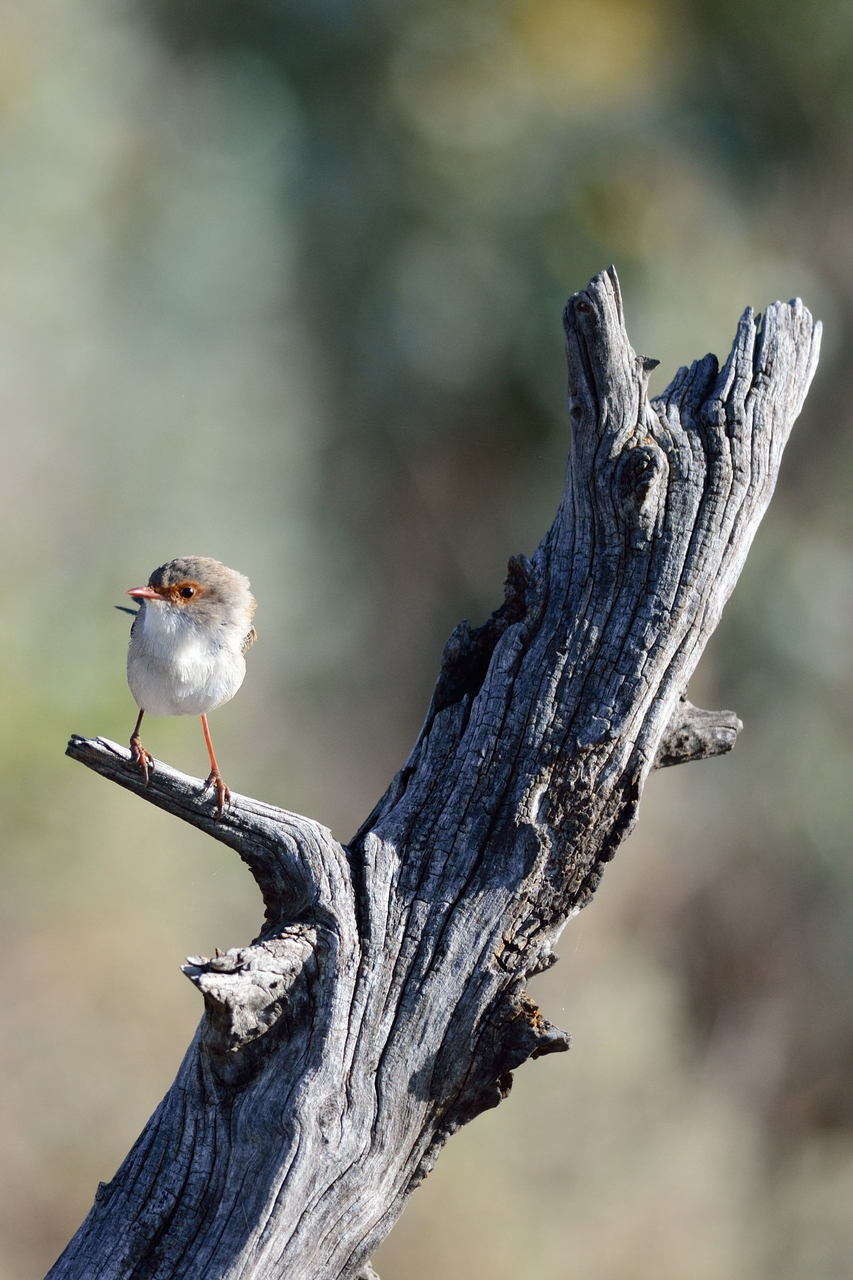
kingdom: Animalia
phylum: Chordata
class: Aves
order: Passeriformes
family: Maluridae
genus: Malurus
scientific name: Malurus cyaneus
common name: Superb fairywren
